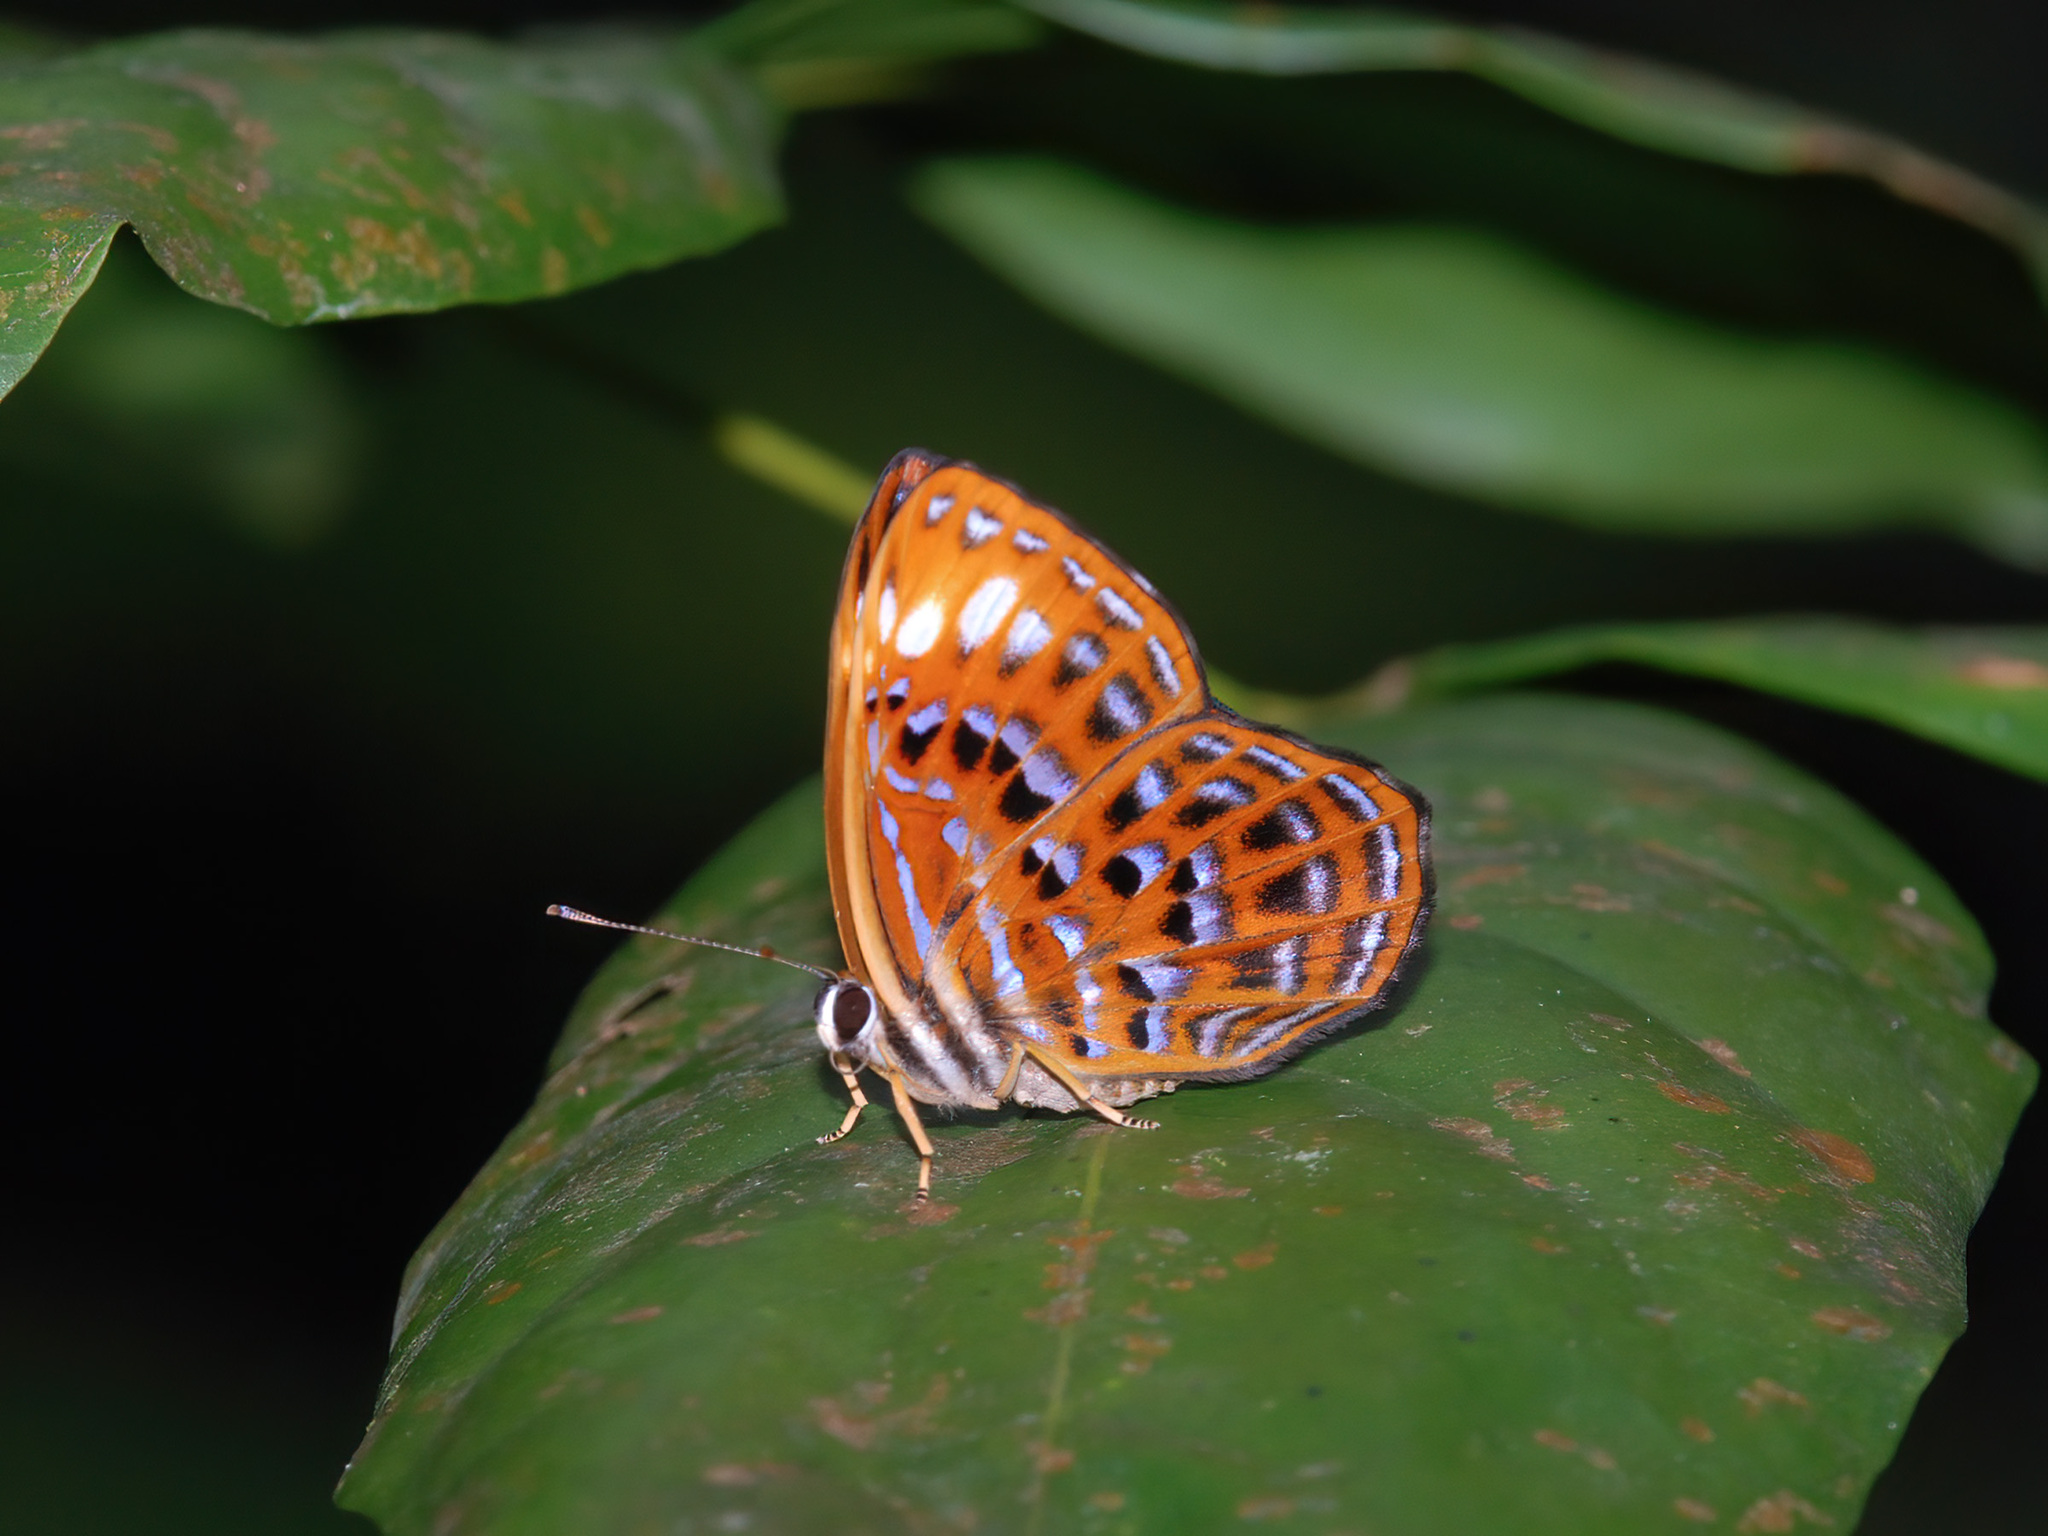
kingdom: Animalia
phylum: Arthropoda
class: Insecta
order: Lepidoptera
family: Riodinidae
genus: Laxita
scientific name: Laxita thuisto
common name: Lesser harlequin
